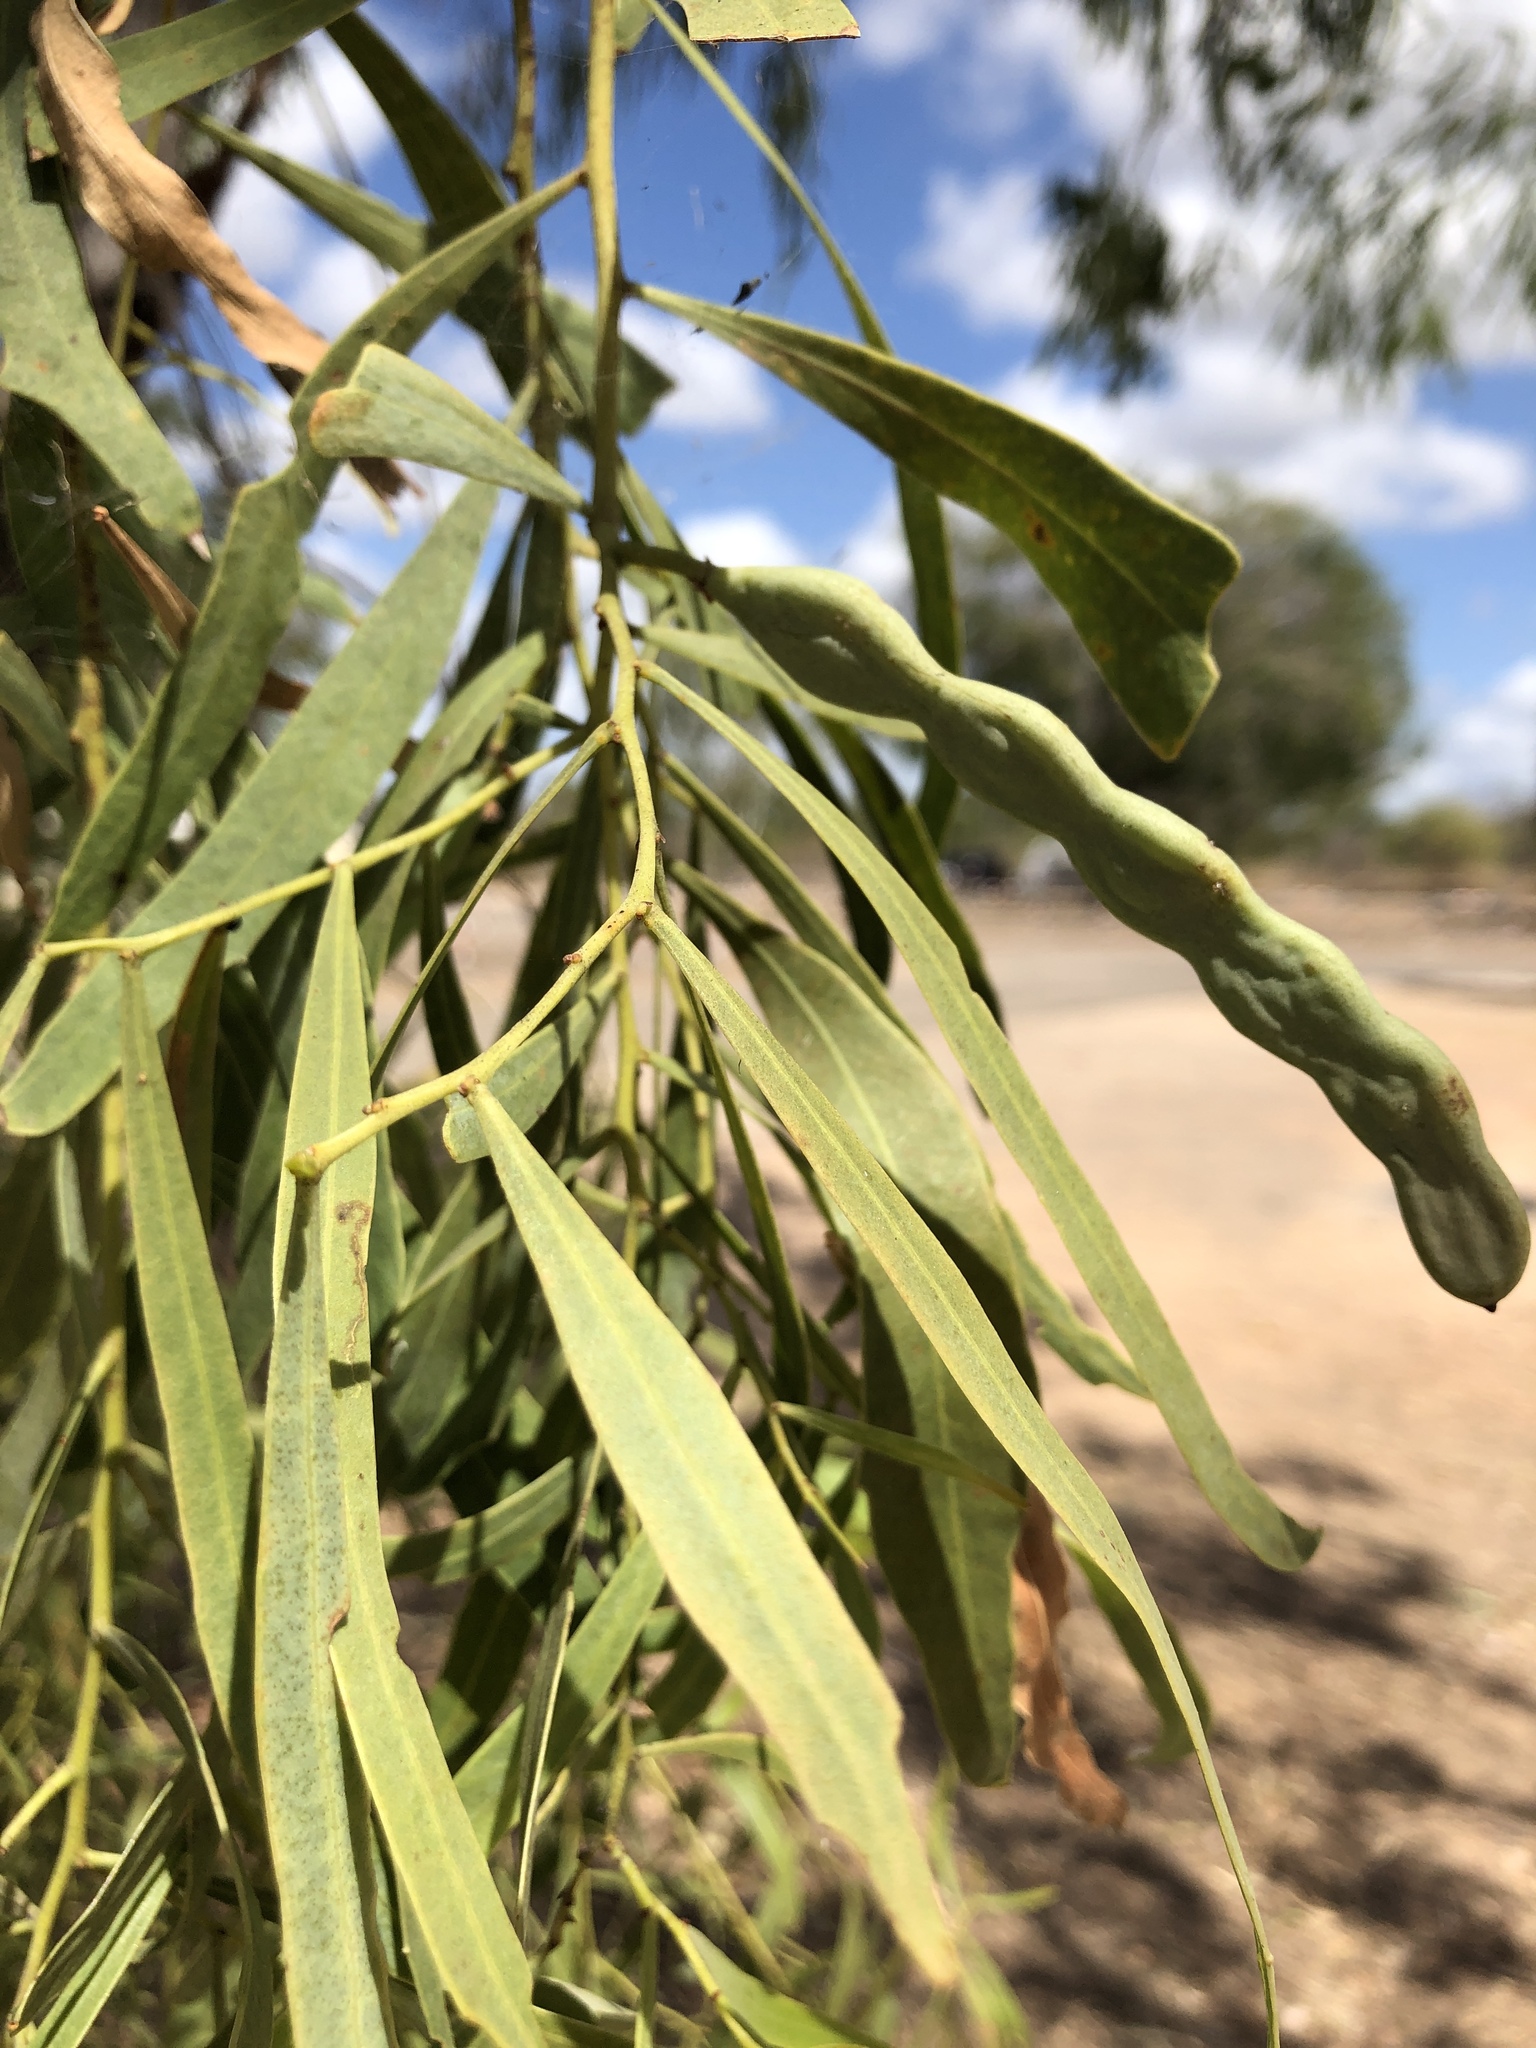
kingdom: Plantae
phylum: Tracheophyta
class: Magnoliopsida
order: Fabales
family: Fabaceae
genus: Acacia
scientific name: Acacia salicina
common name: Broughton willow wattle
